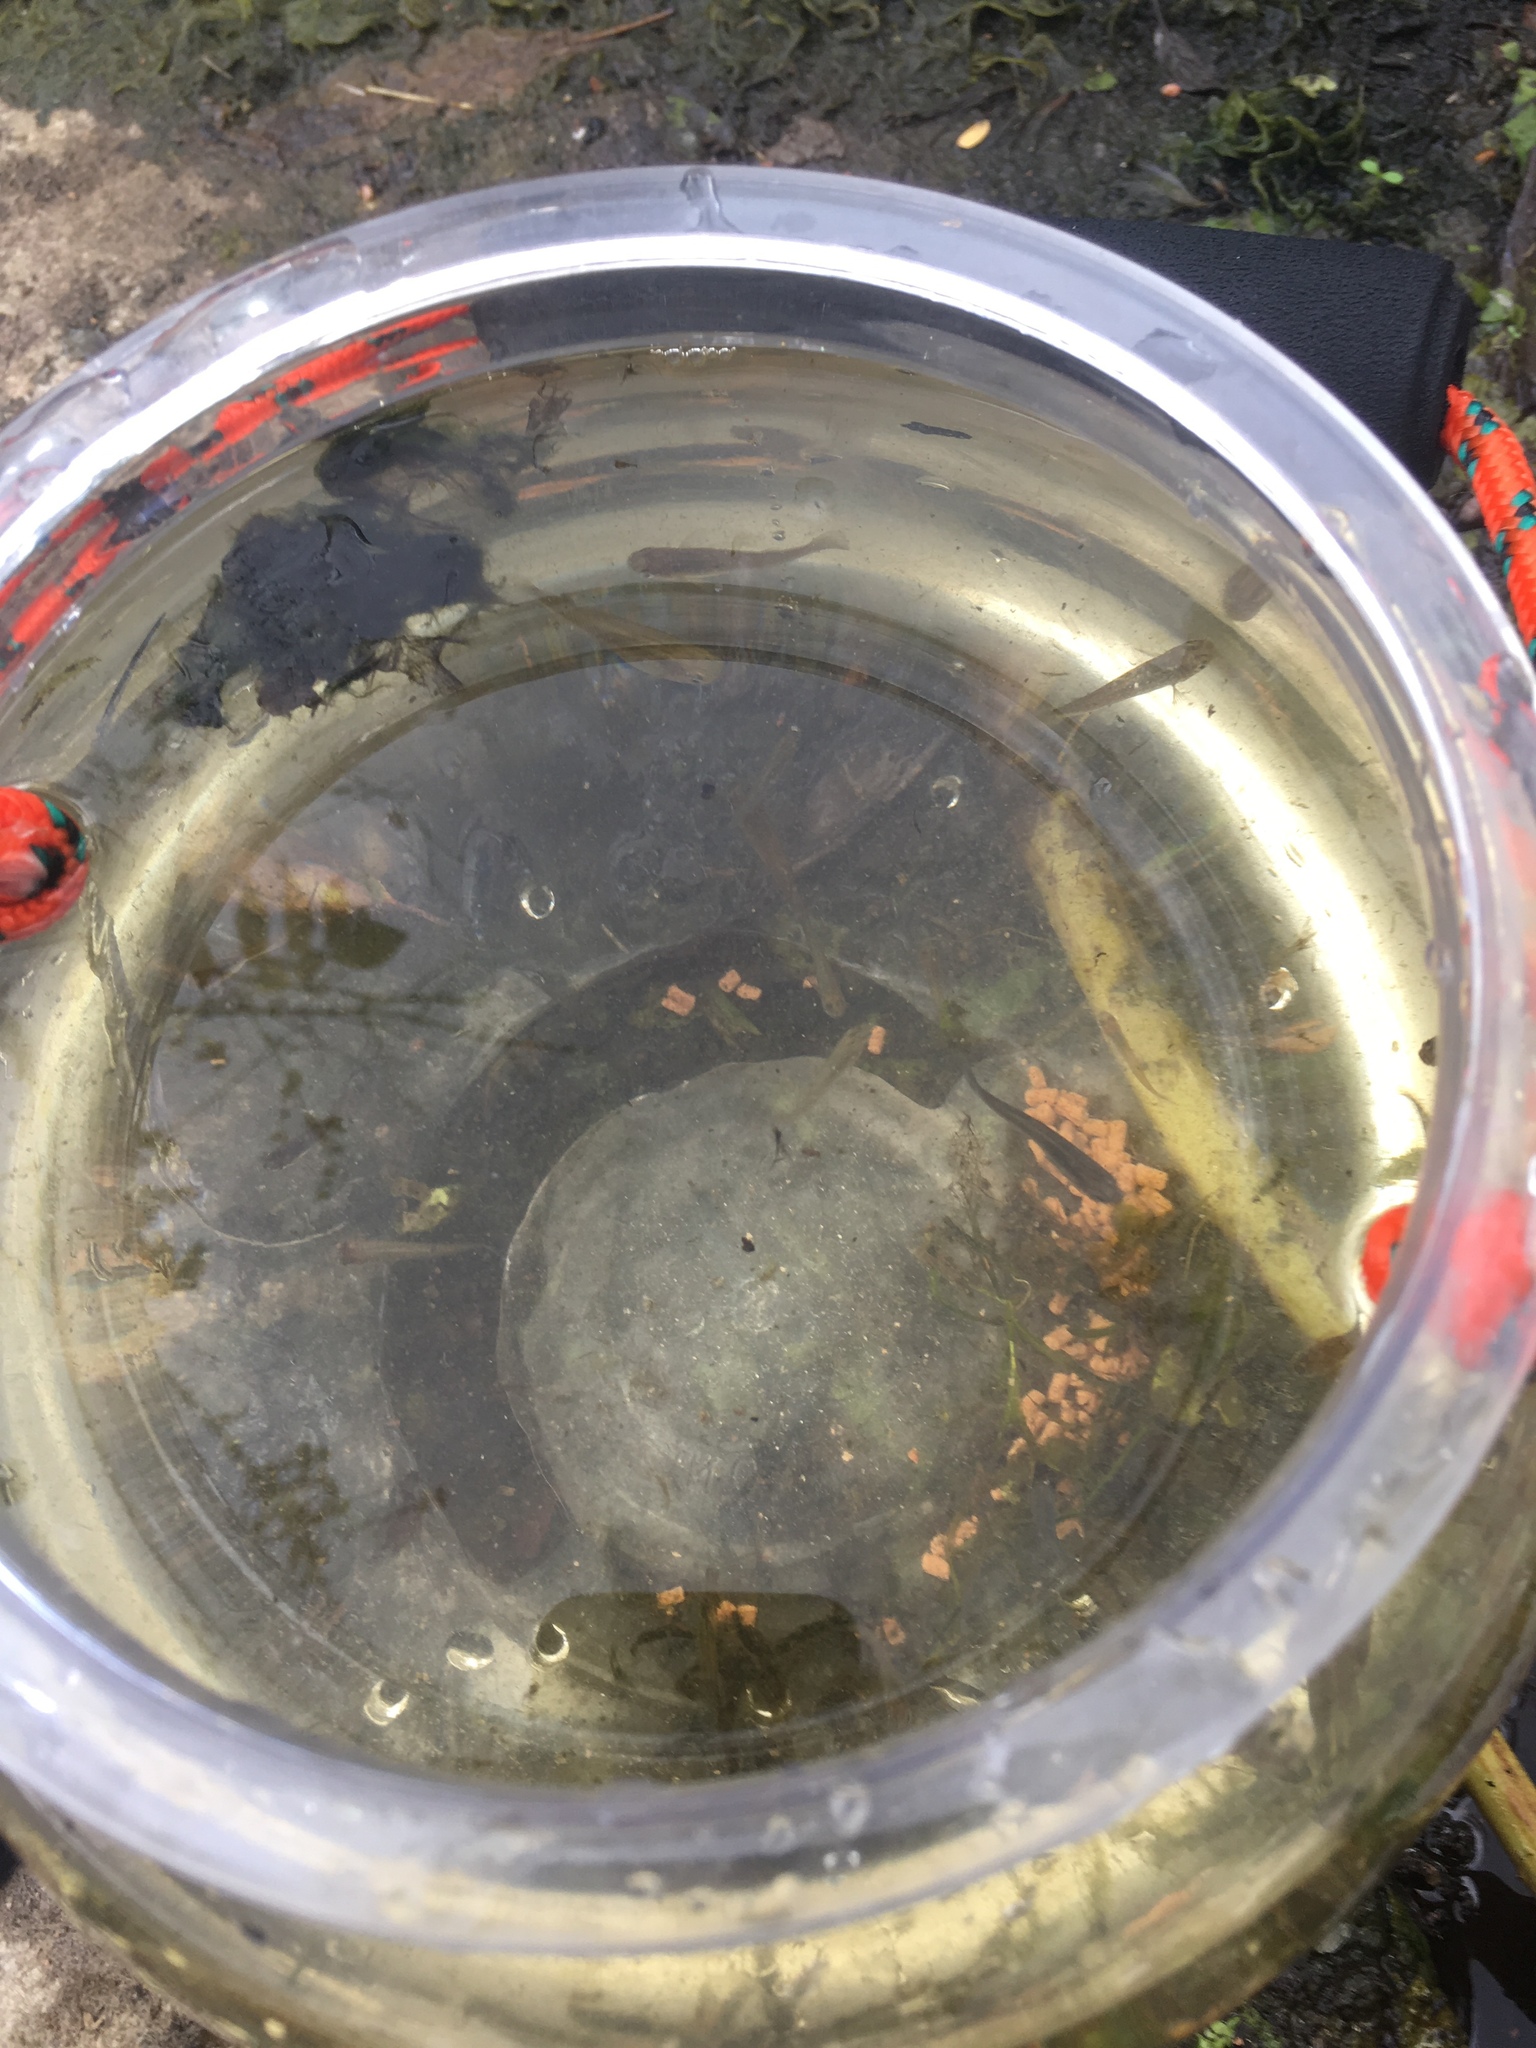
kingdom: Animalia
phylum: Chordata
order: Cyprinodontiformes
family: Poeciliidae
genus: Gambusia
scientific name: Gambusia affinis
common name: Mosquitofish
